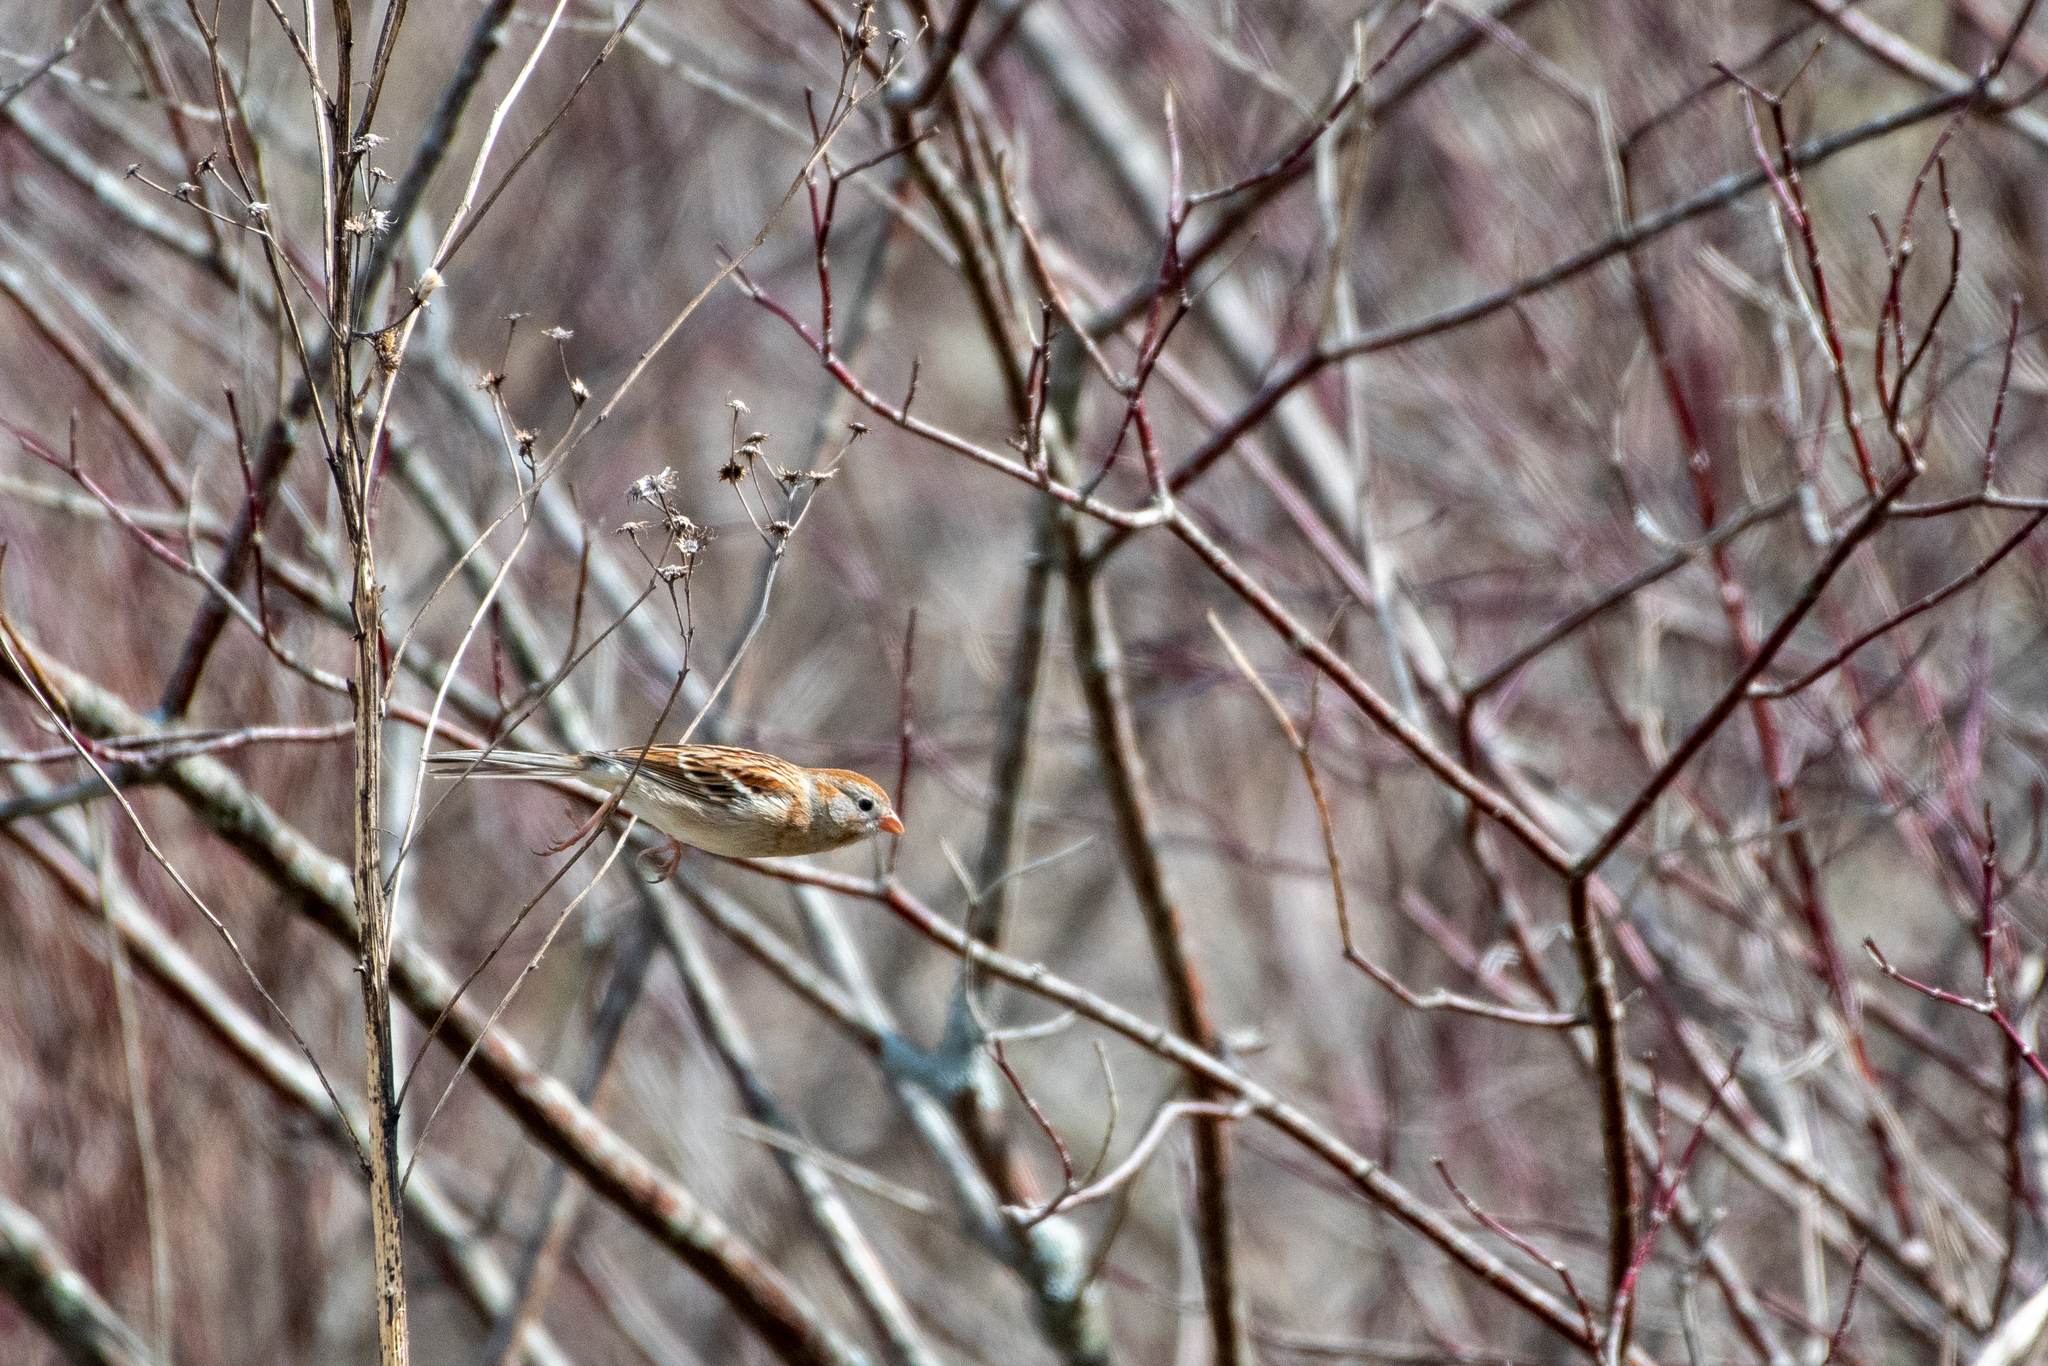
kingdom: Animalia
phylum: Chordata
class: Aves
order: Passeriformes
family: Passerellidae
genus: Spizella
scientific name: Spizella pusilla
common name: Field sparrow
